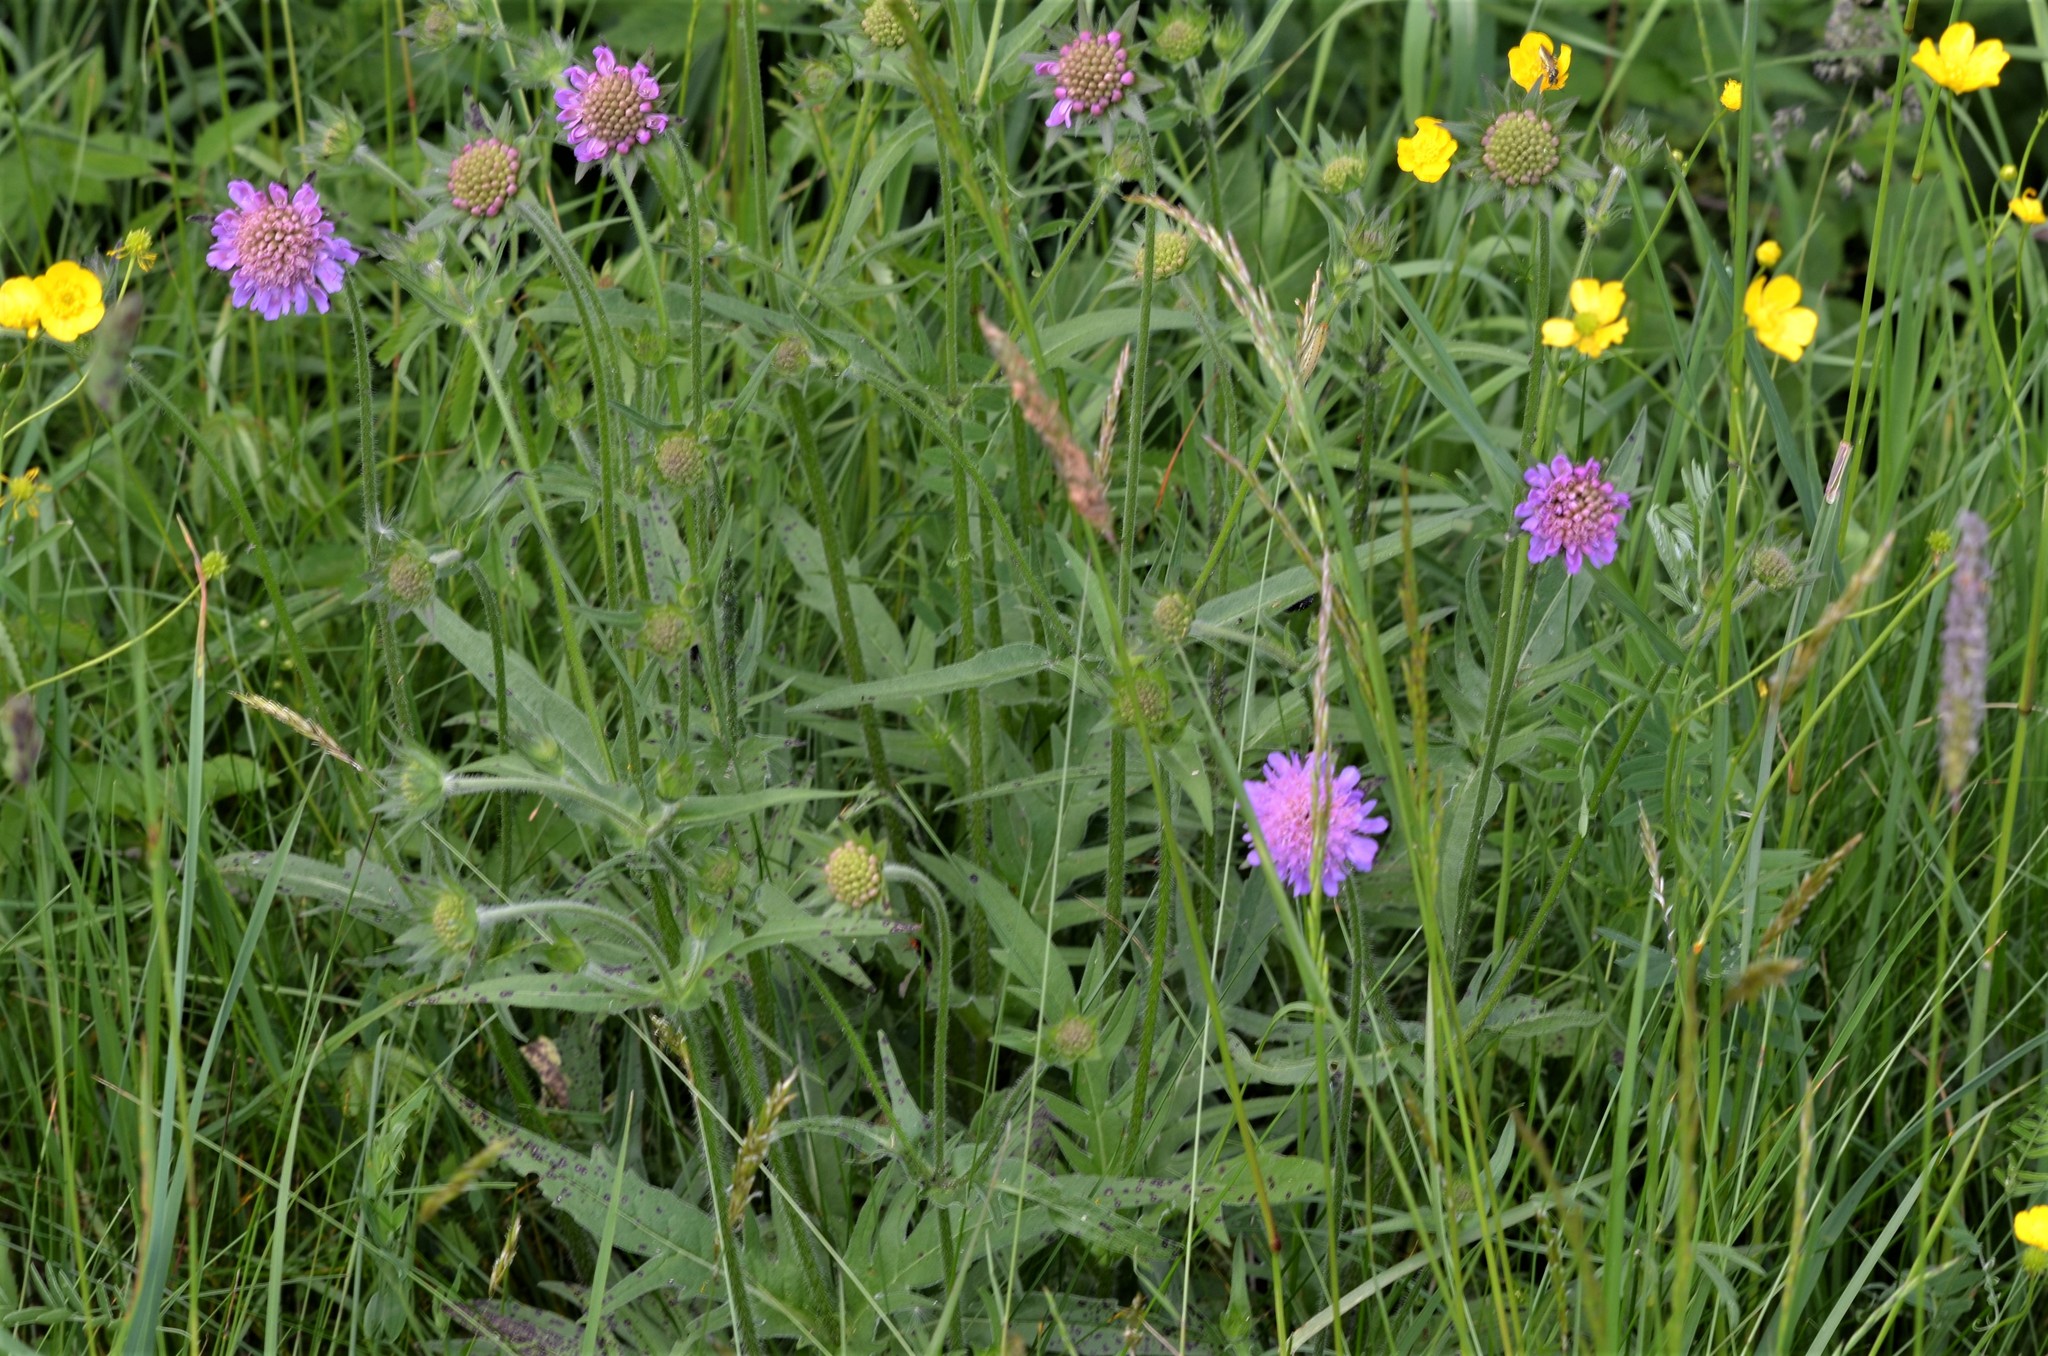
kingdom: Plantae
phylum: Tracheophyta
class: Magnoliopsida
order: Dipsacales
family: Caprifoliaceae
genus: Knautia
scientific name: Knautia arvensis
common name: Field scabiosa
